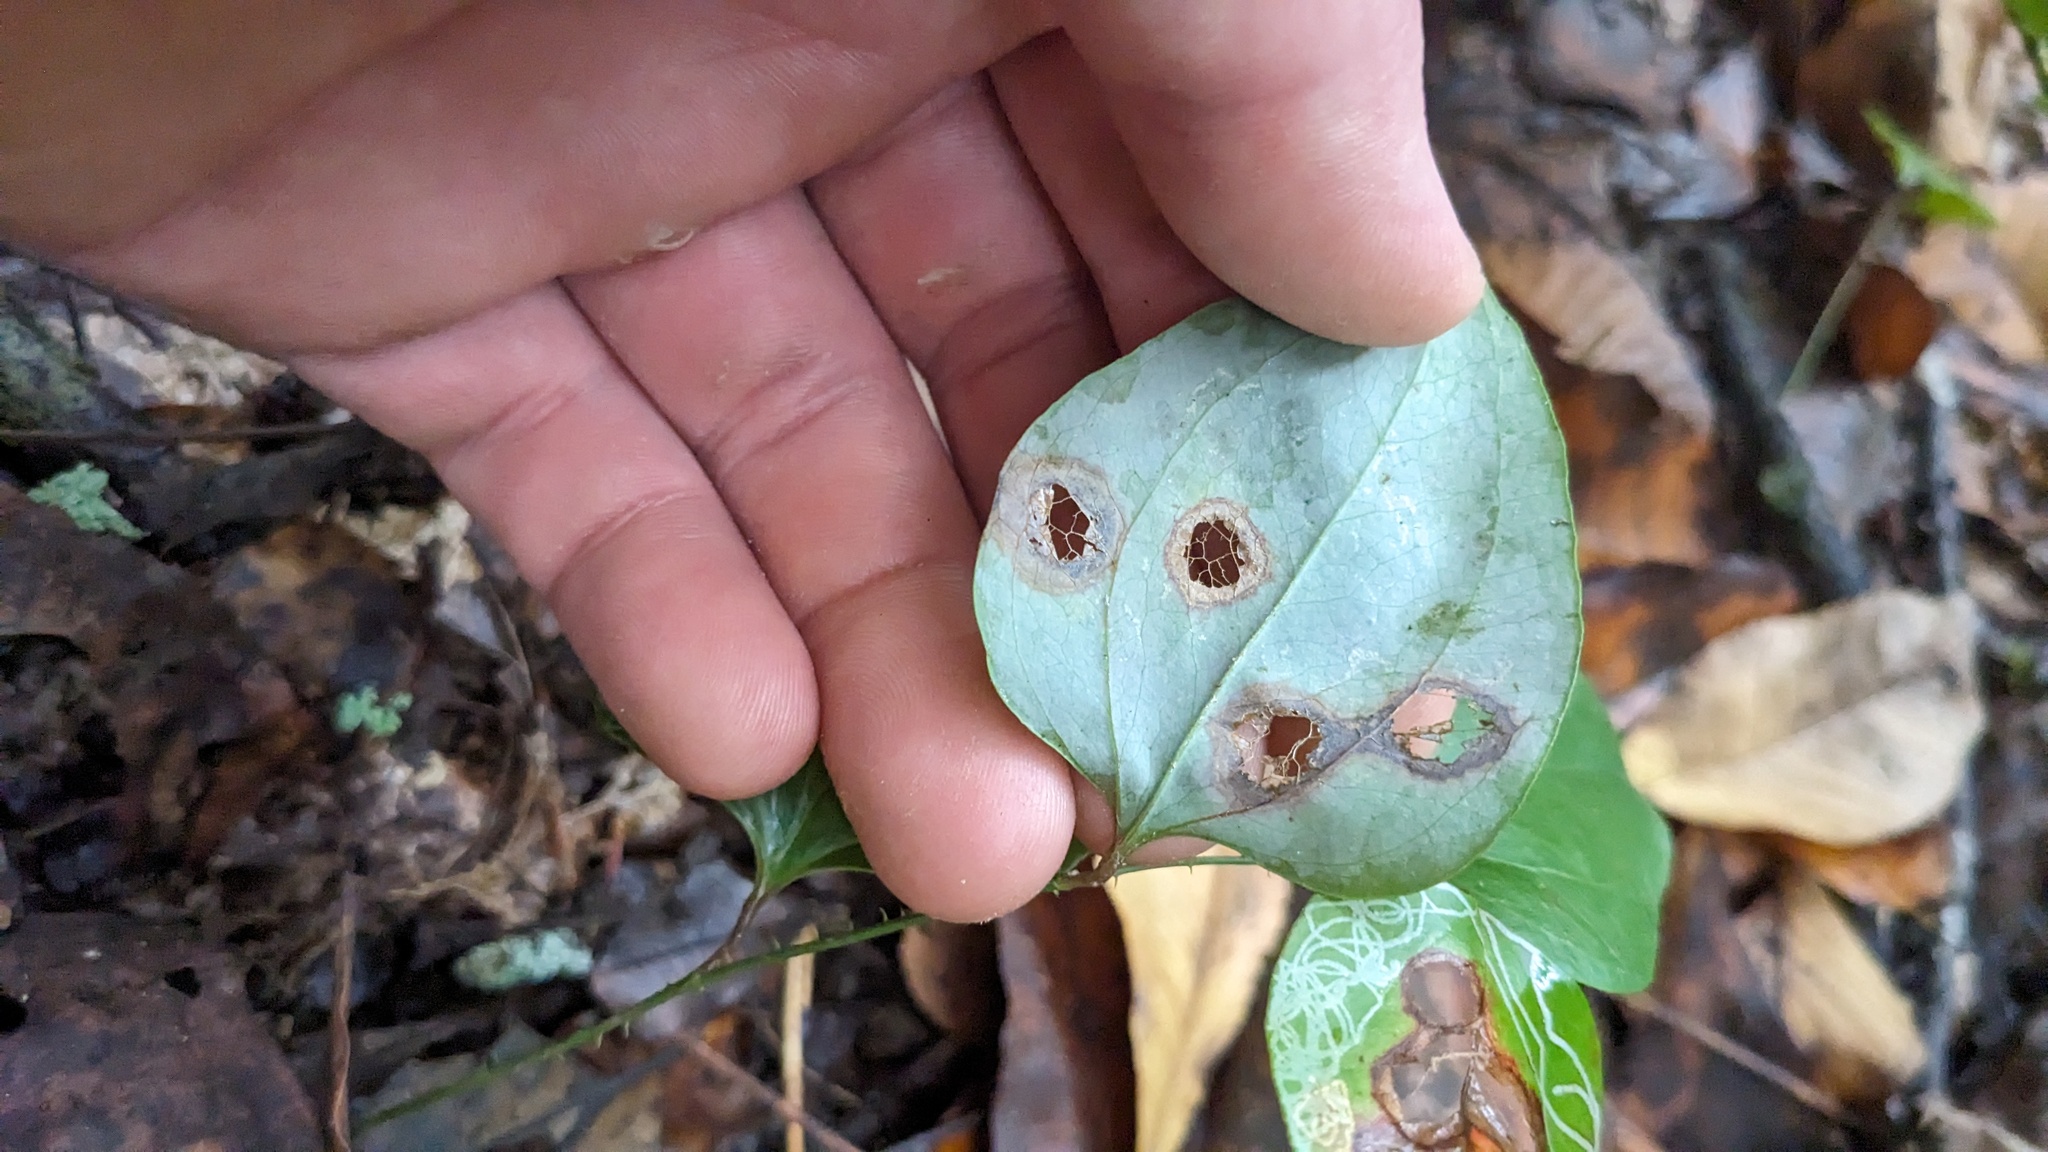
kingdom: Animalia
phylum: Arthropoda
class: Insecta
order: Lepidoptera
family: Gracillariidae
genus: Marmara
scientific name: Marmara smilacisella
